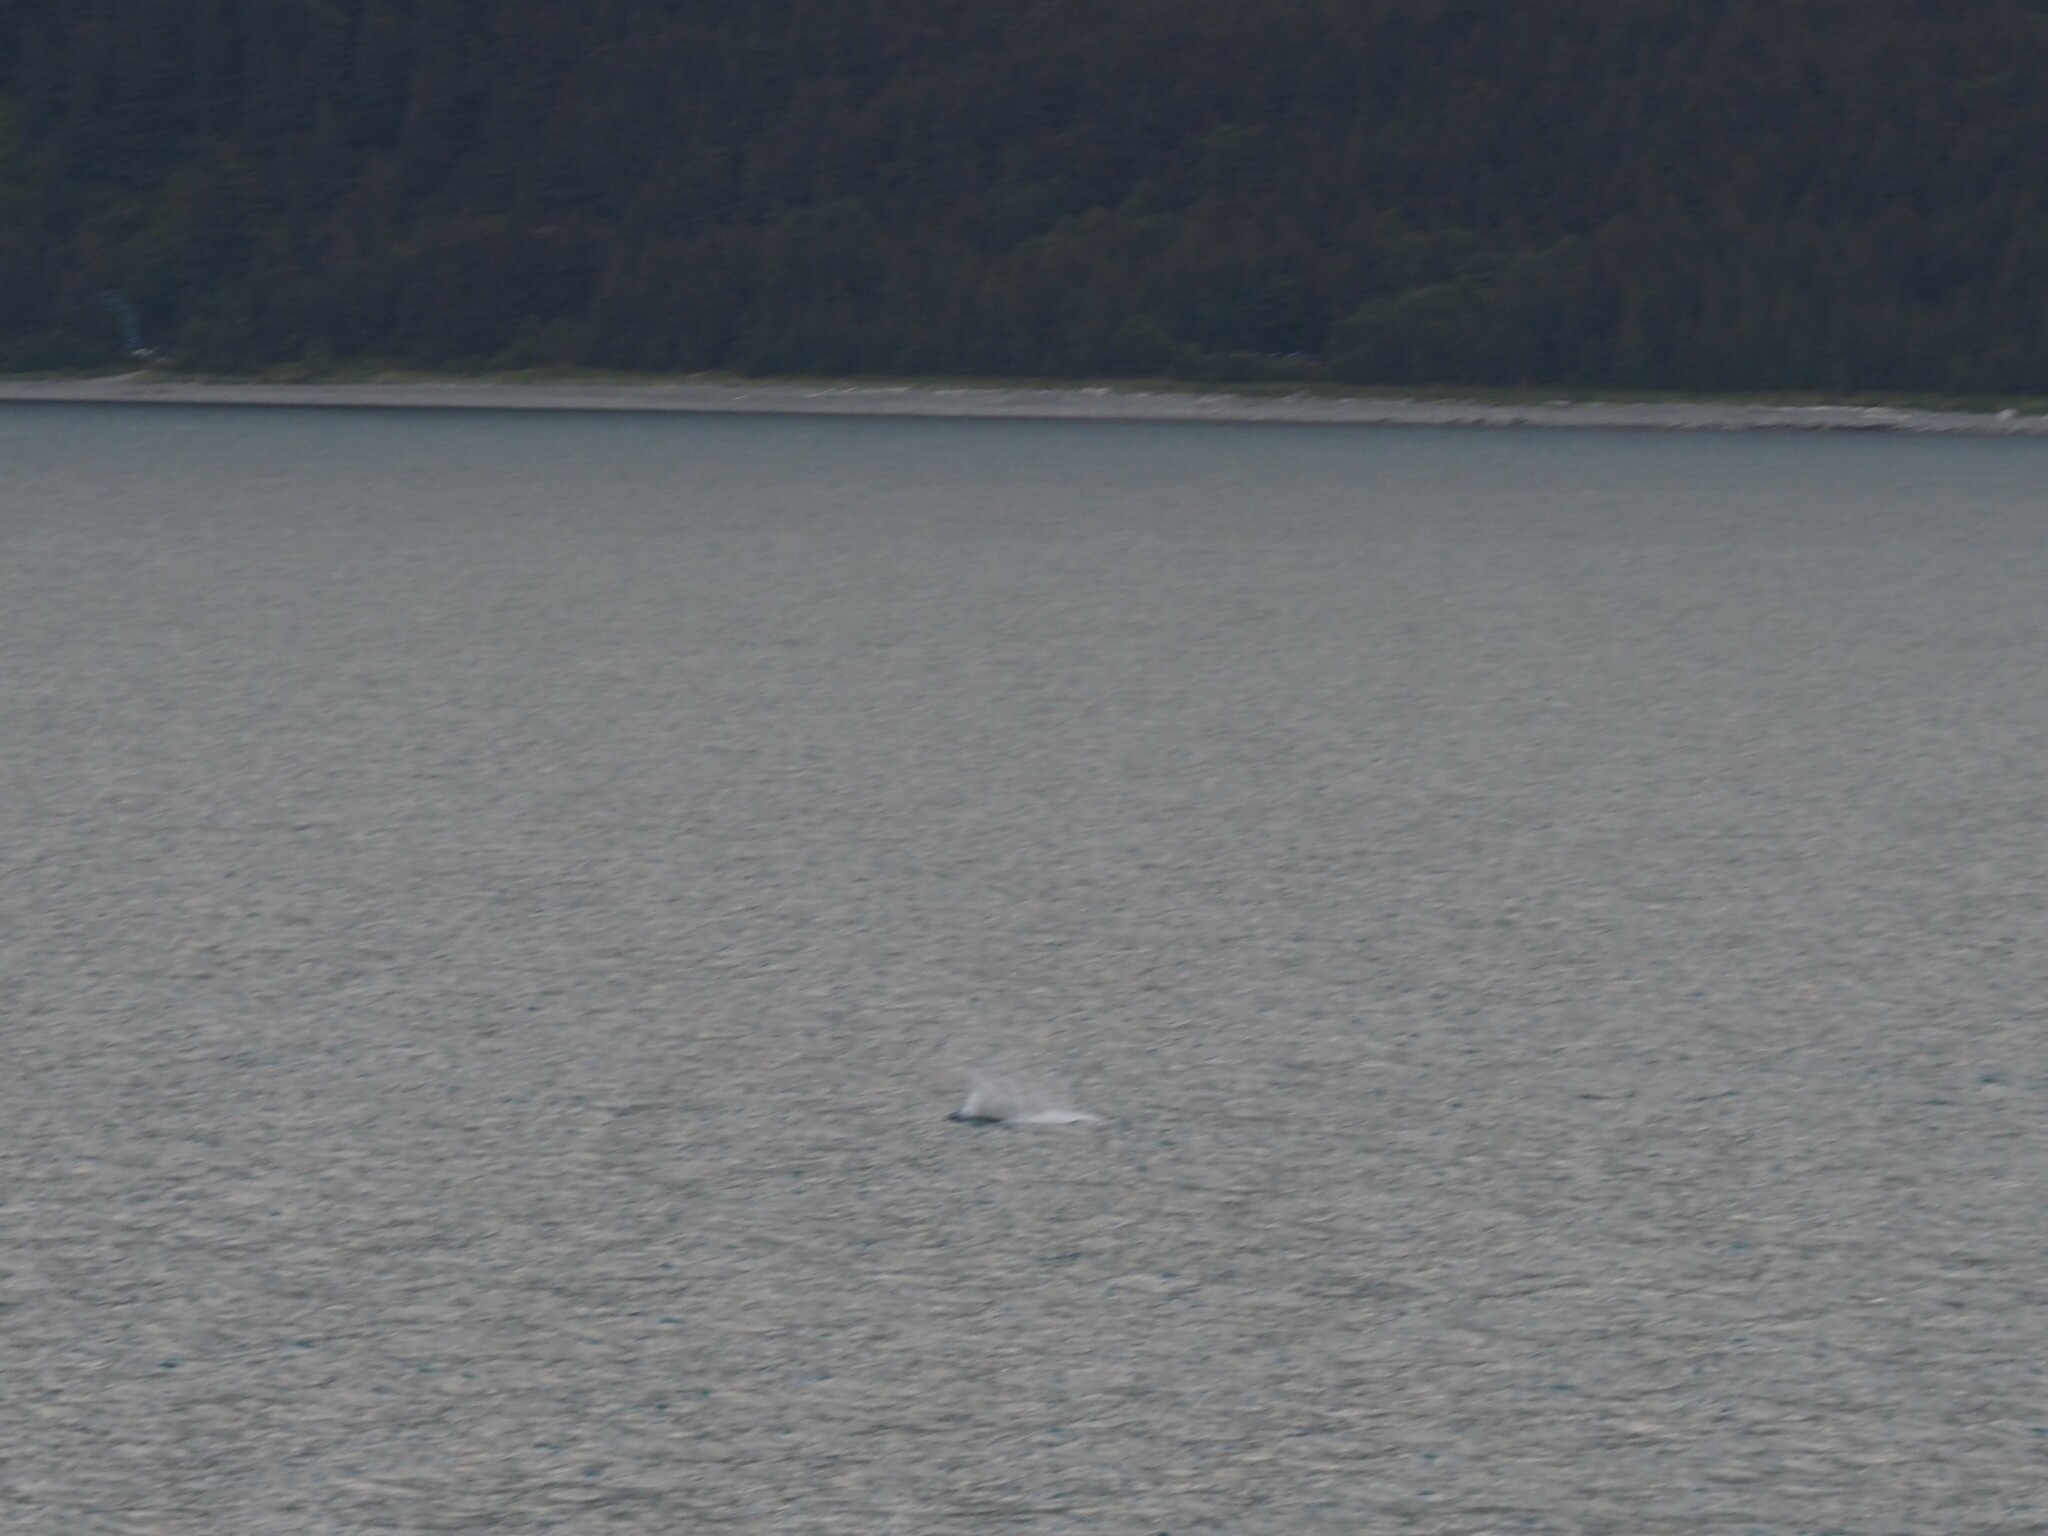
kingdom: Animalia
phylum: Chordata
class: Mammalia
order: Cetacea
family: Phocoenidae
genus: Phocoenoides
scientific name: Phocoenoides dalli
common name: Dall's porpoise
